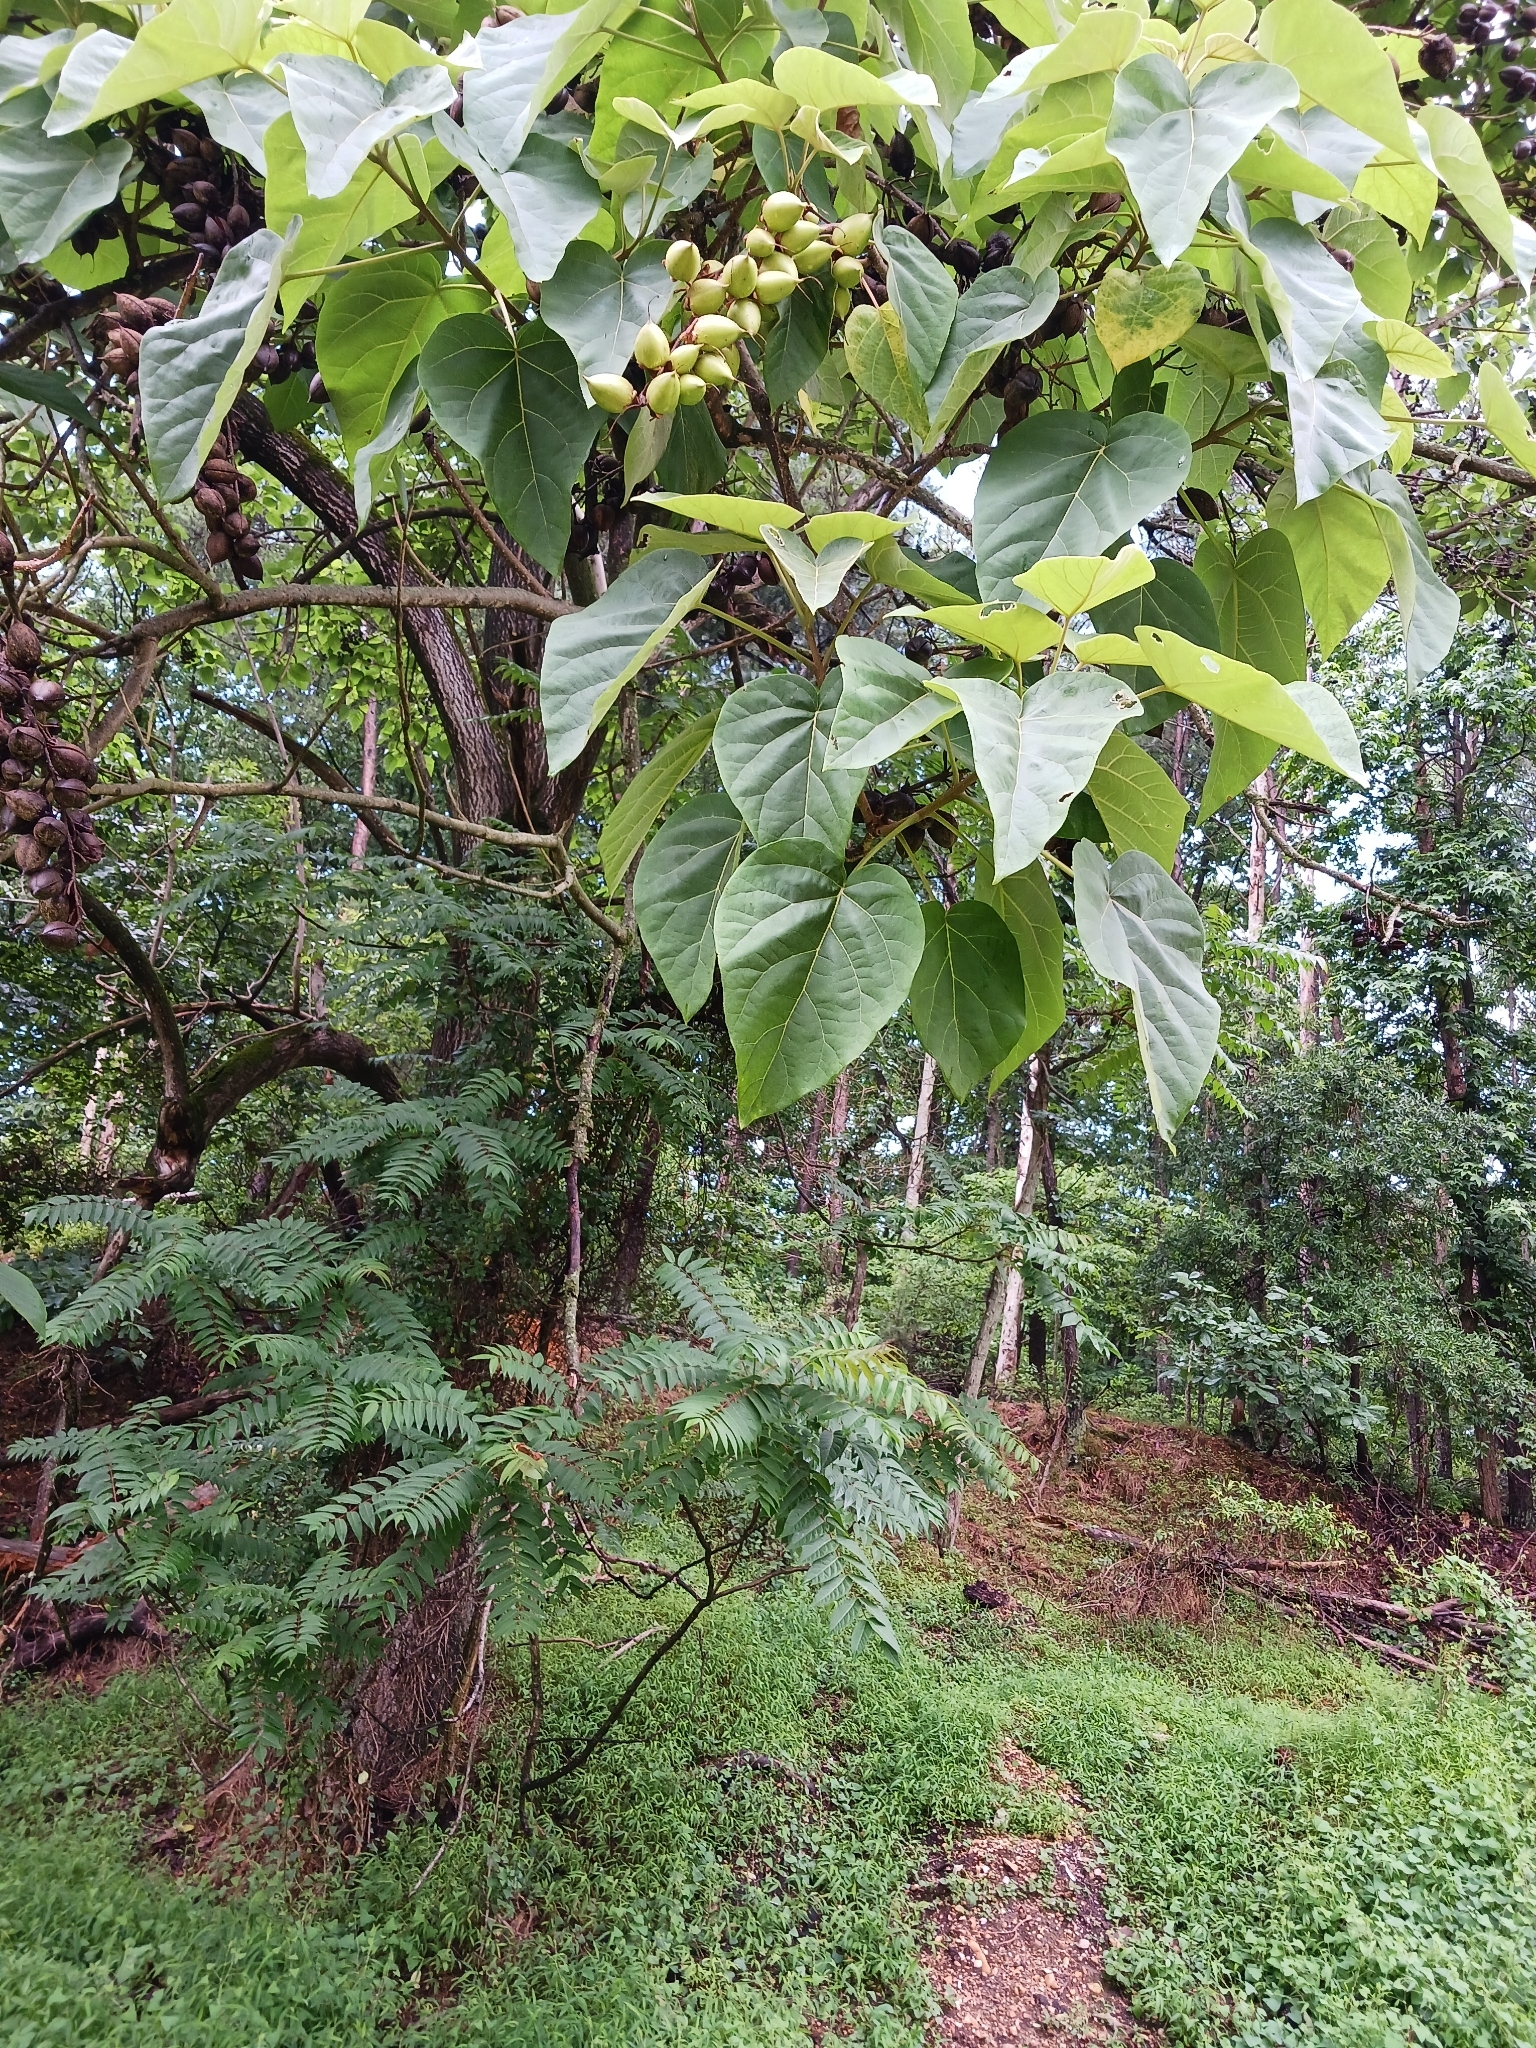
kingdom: Plantae
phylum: Tracheophyta
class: Magnoliopsida
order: Lamiales
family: Paulowniaceae
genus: Paulownia
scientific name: Paulownia tomentosa
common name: Foxglove-tree
